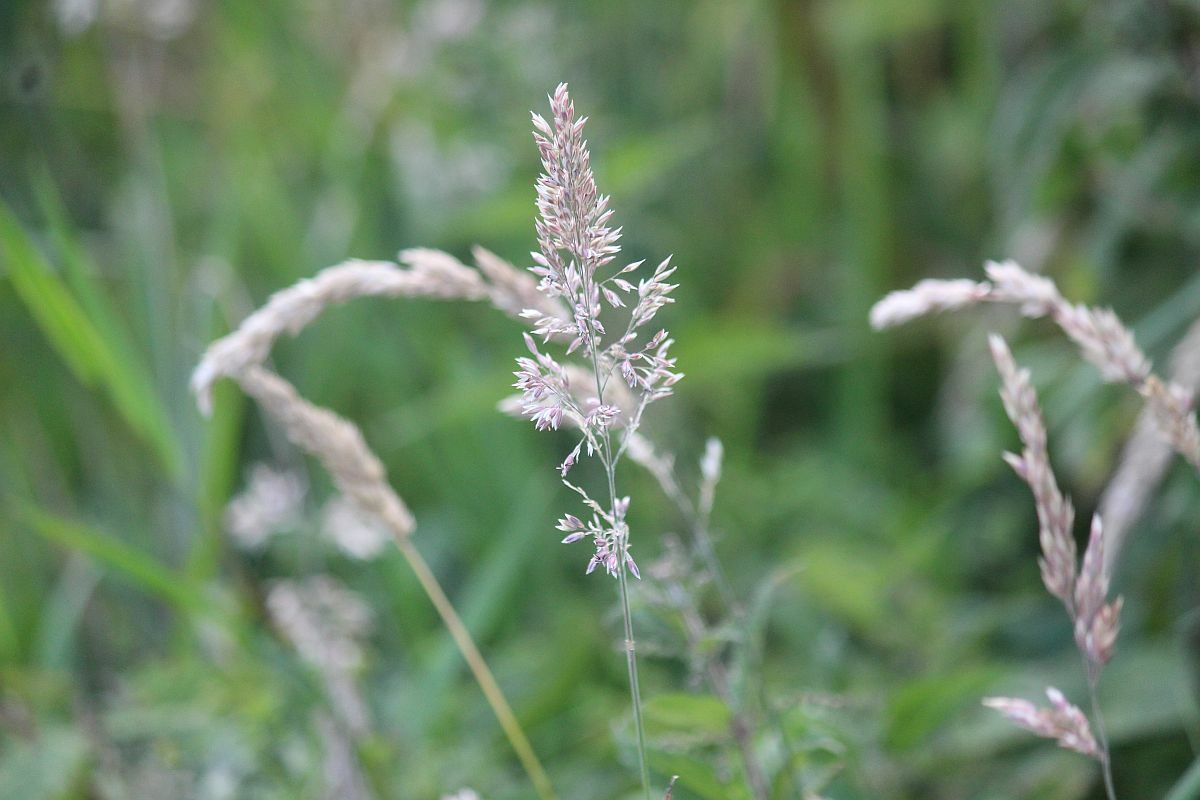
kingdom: Plantae
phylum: Tracheophyta
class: Liliopsida
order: Poales
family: Poaceae
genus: Holcus
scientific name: Holcus lanatus
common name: Yorkshire-fog
